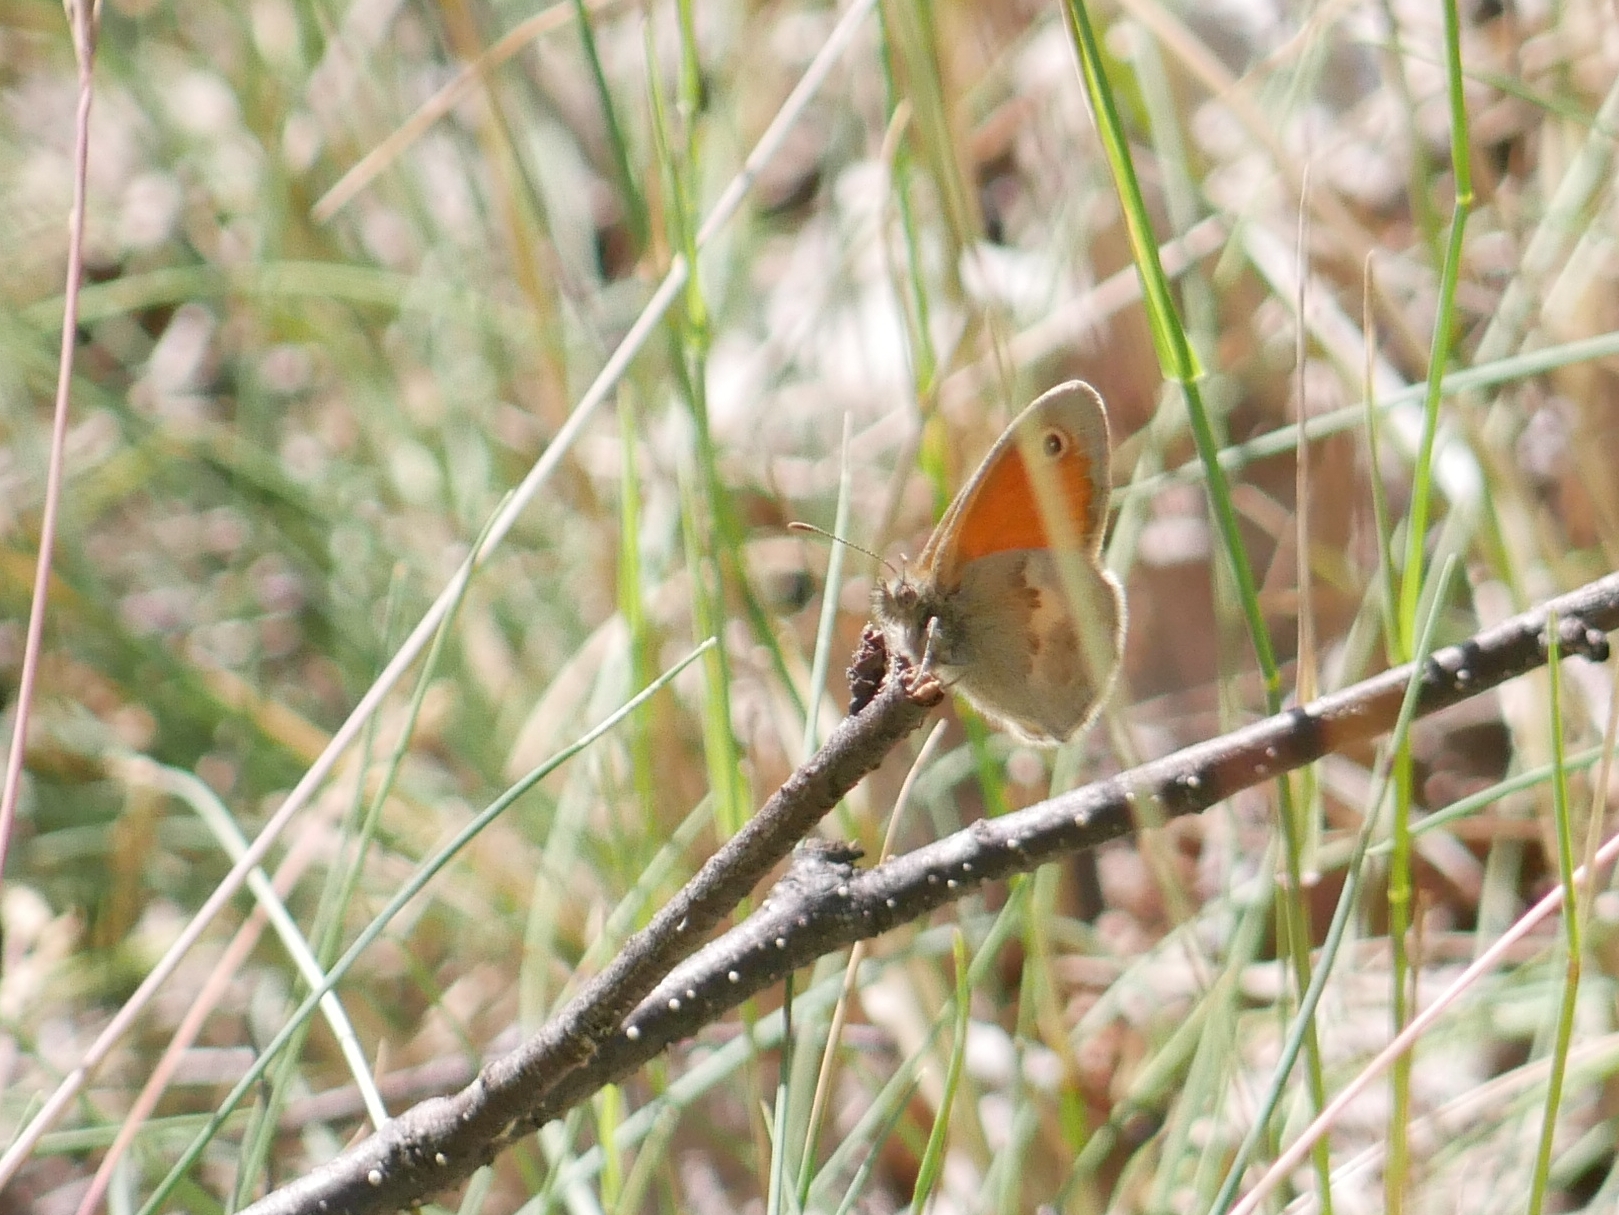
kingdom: Animalia
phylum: Arthropoda
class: Insecta
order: Lepidoptera
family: Nymphalidae
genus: Coenonympha
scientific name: Coenonympha pamphilus
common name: Small heath
